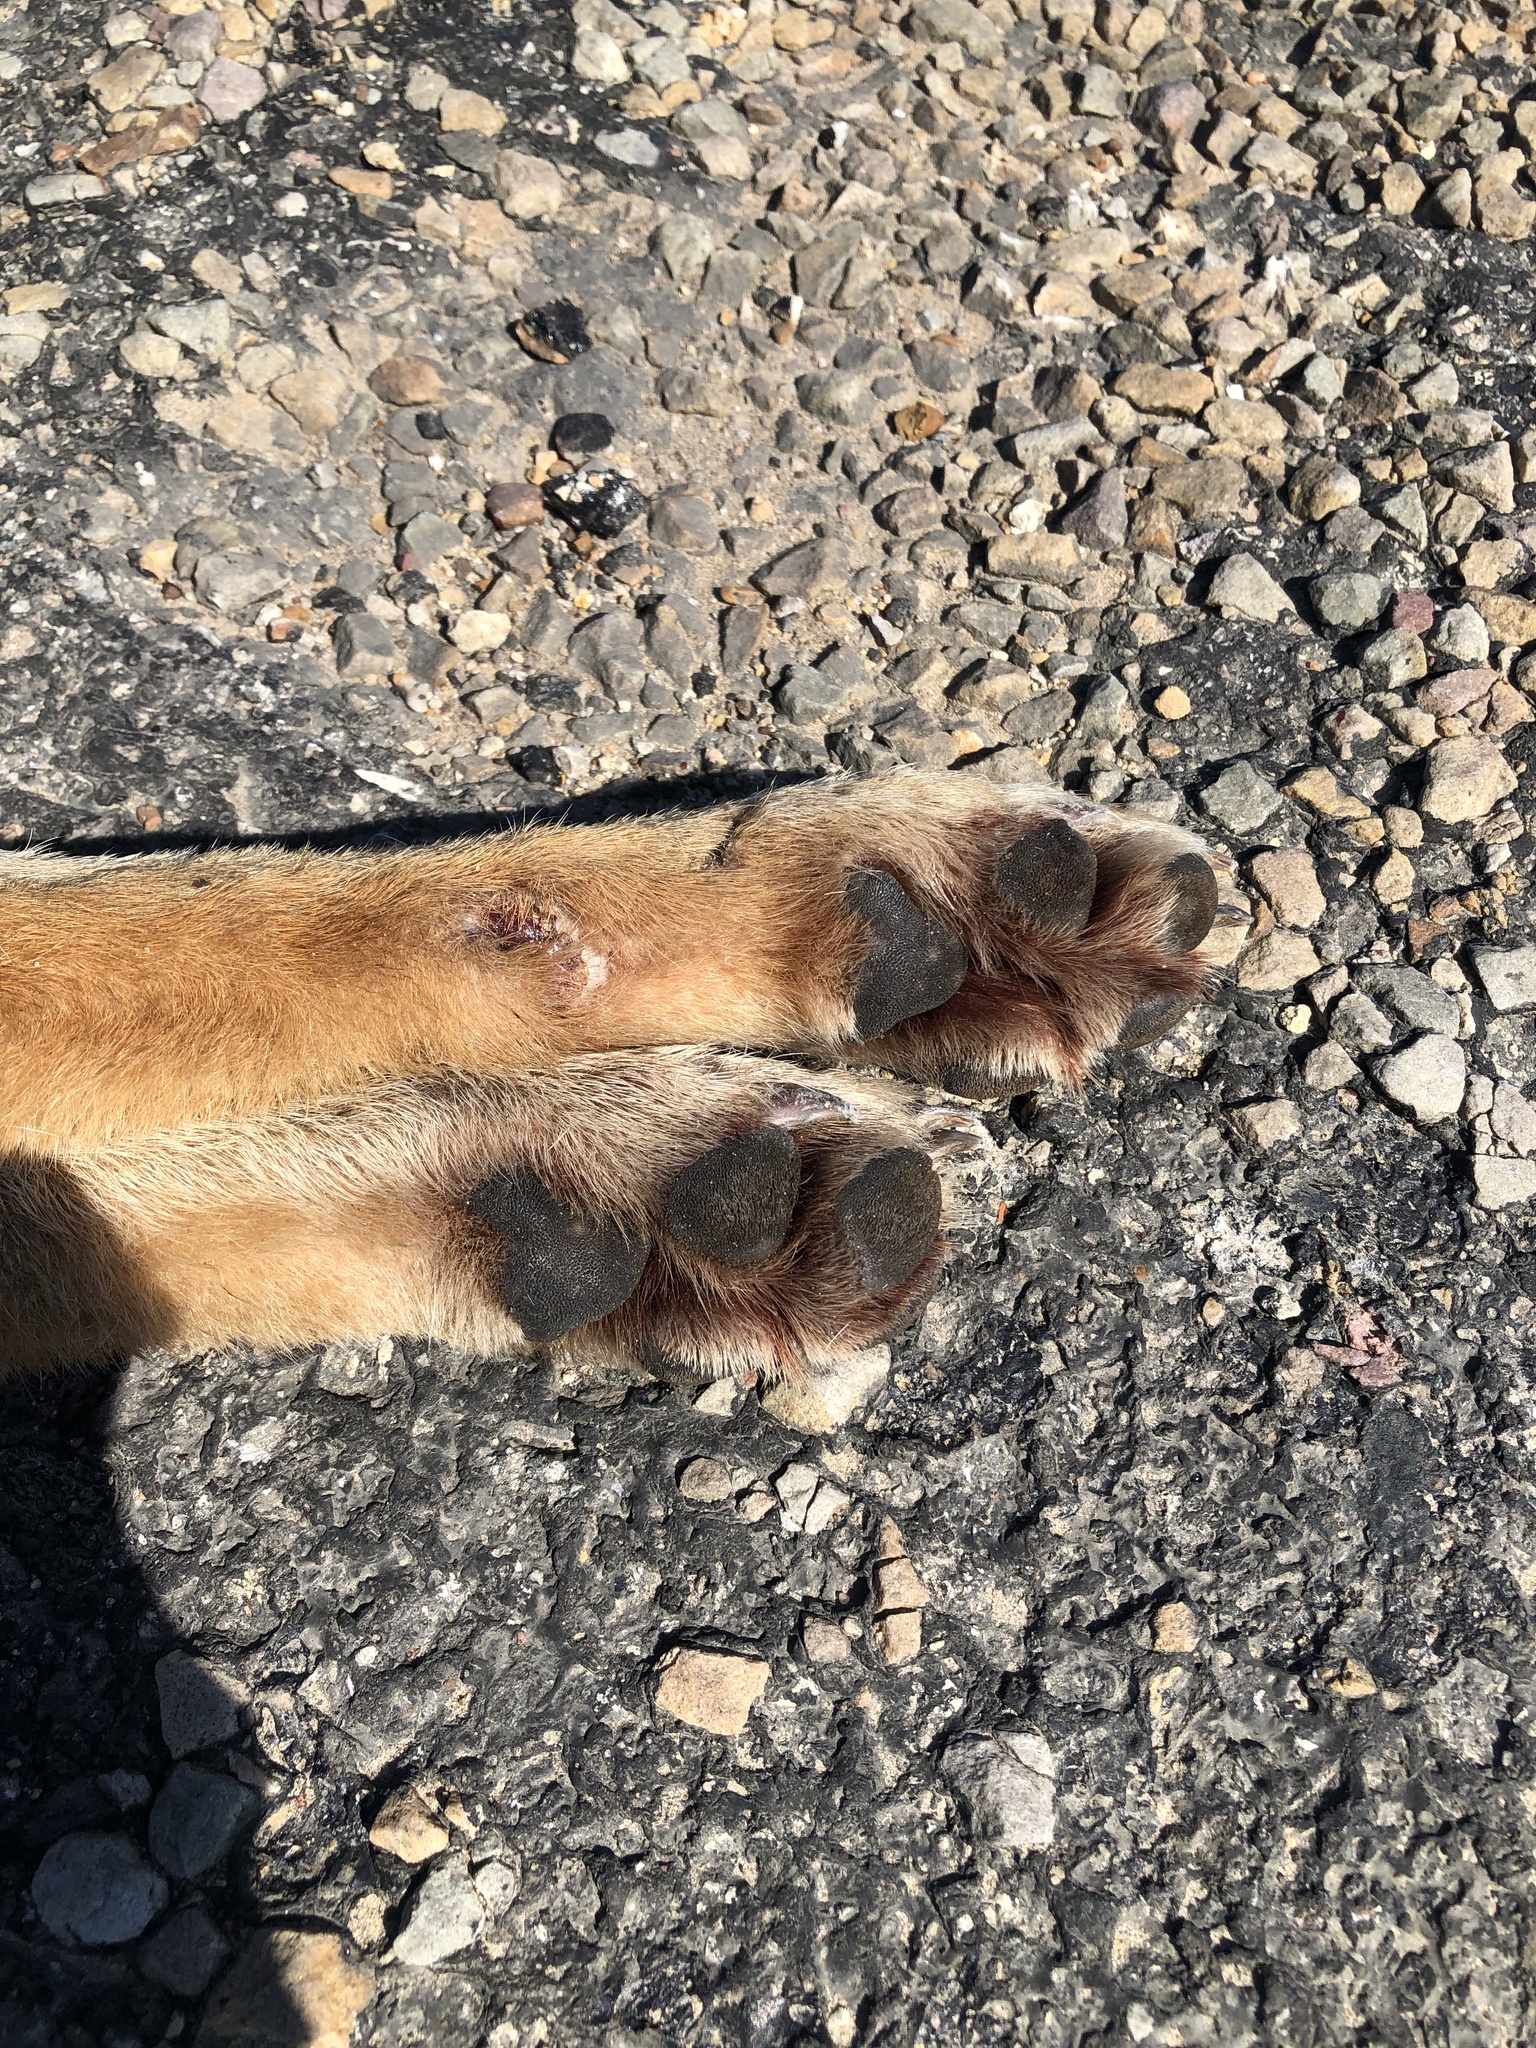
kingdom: Animalia
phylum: Chordata
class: Mammalia
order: Carnivora
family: Canidae
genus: Canis
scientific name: Canis latrans
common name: Coyote
